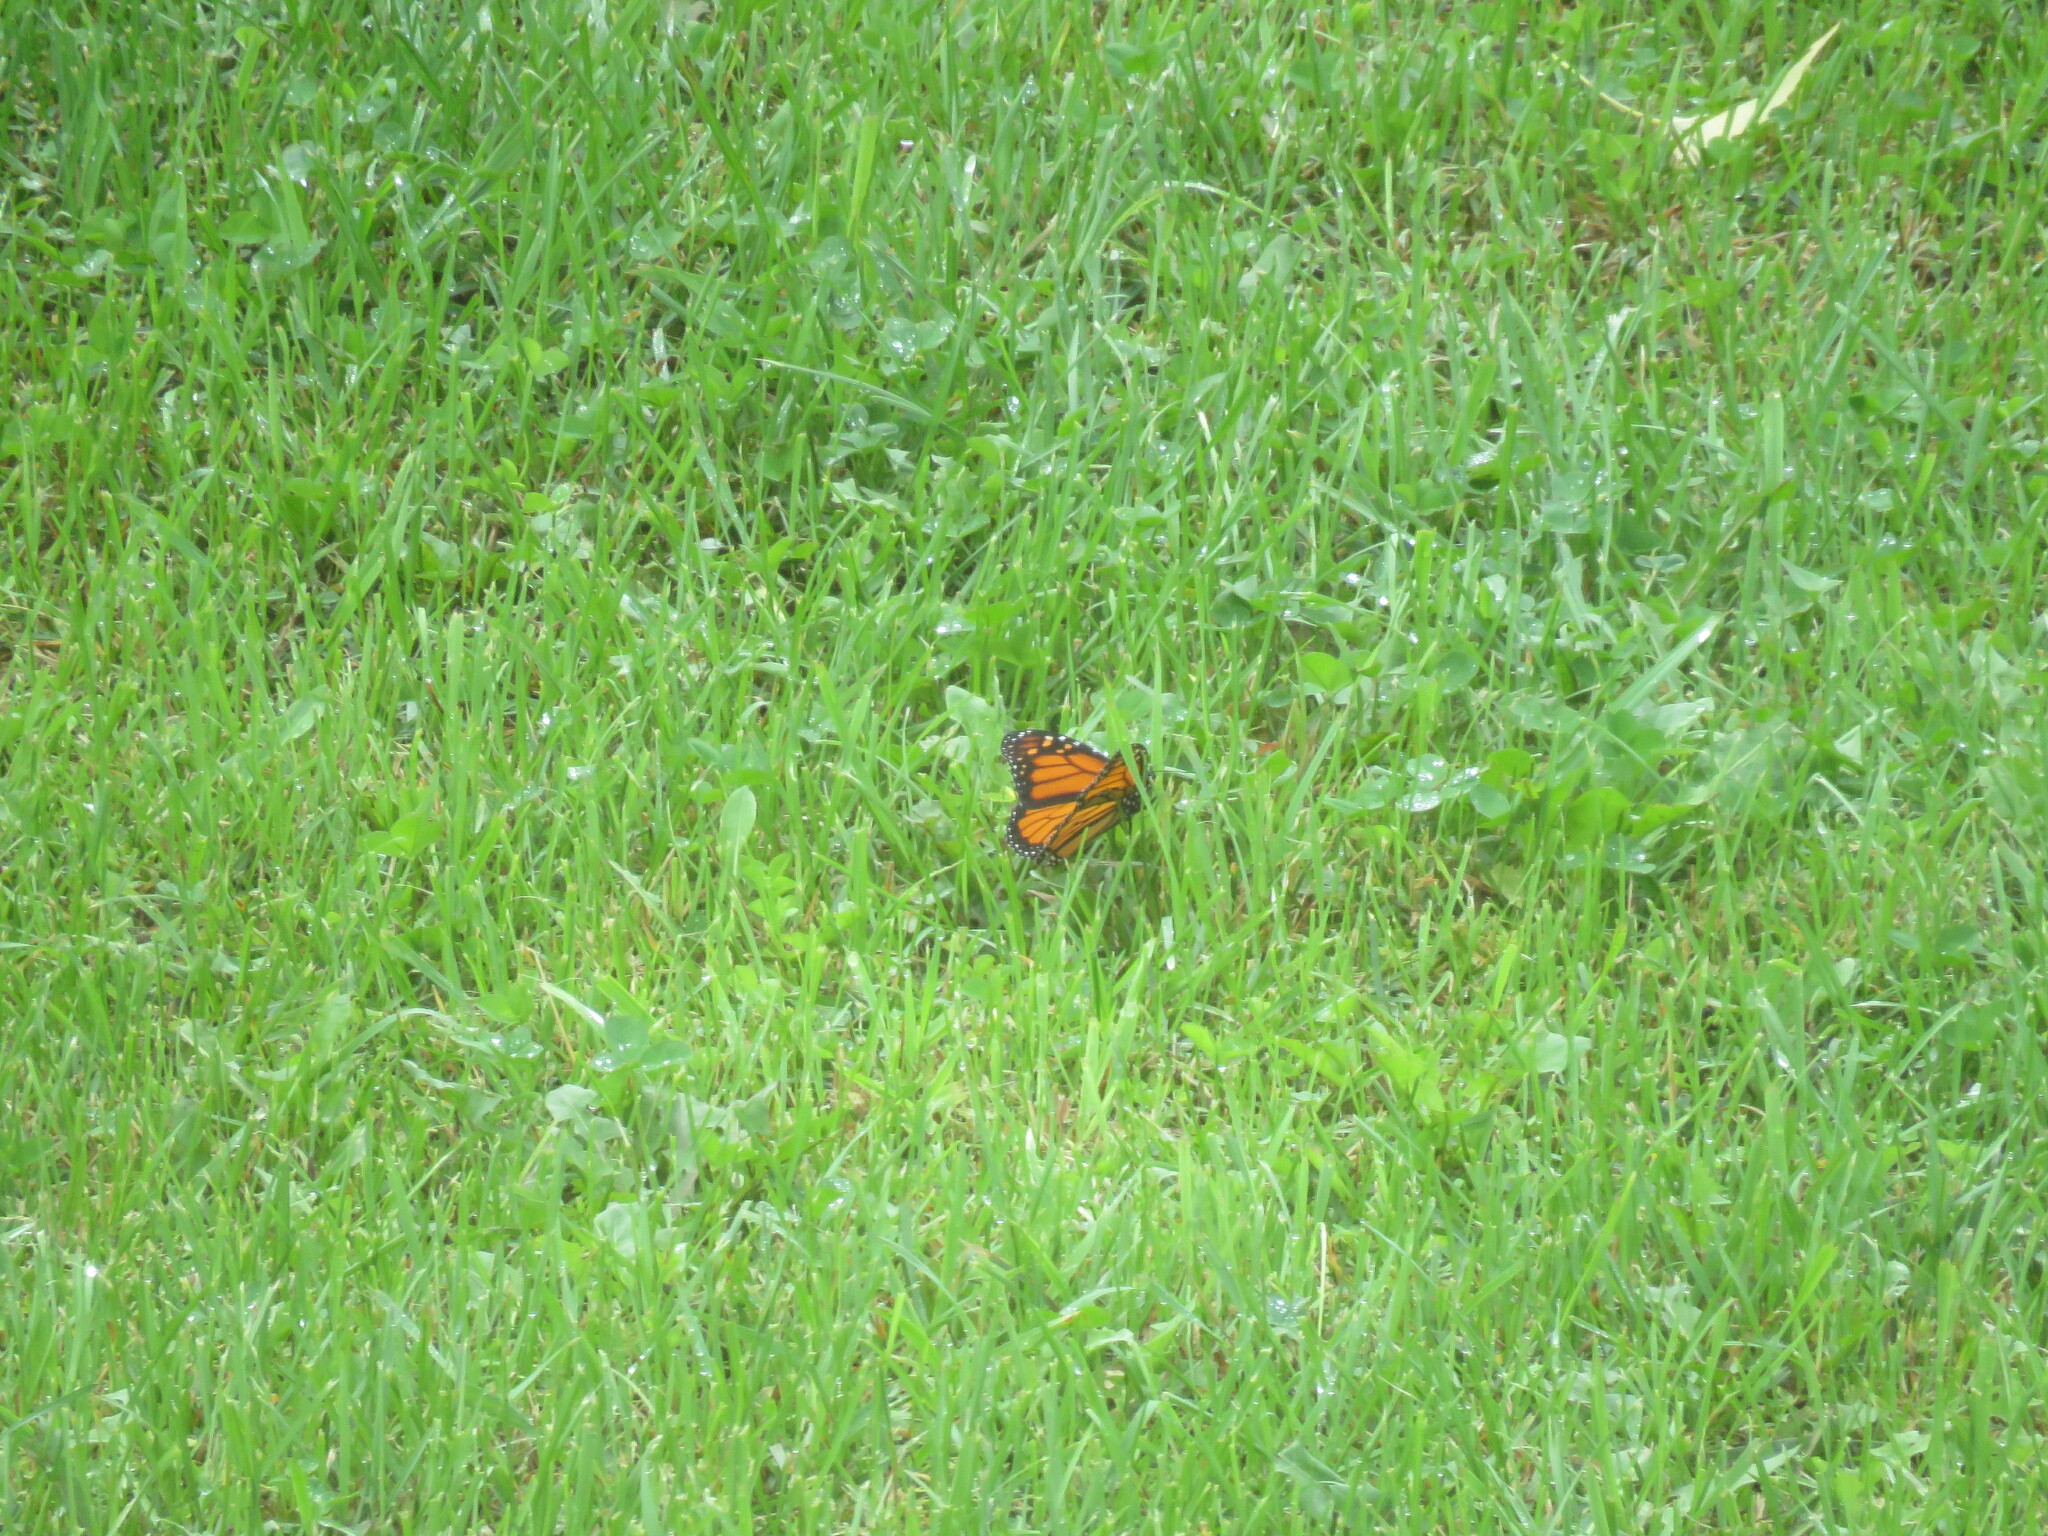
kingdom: Animalia
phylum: Arthropoda
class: Insecta
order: Lepidoptera
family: Nymphalidae
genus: Danaus
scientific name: Danaus plexippus
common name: Monarch
